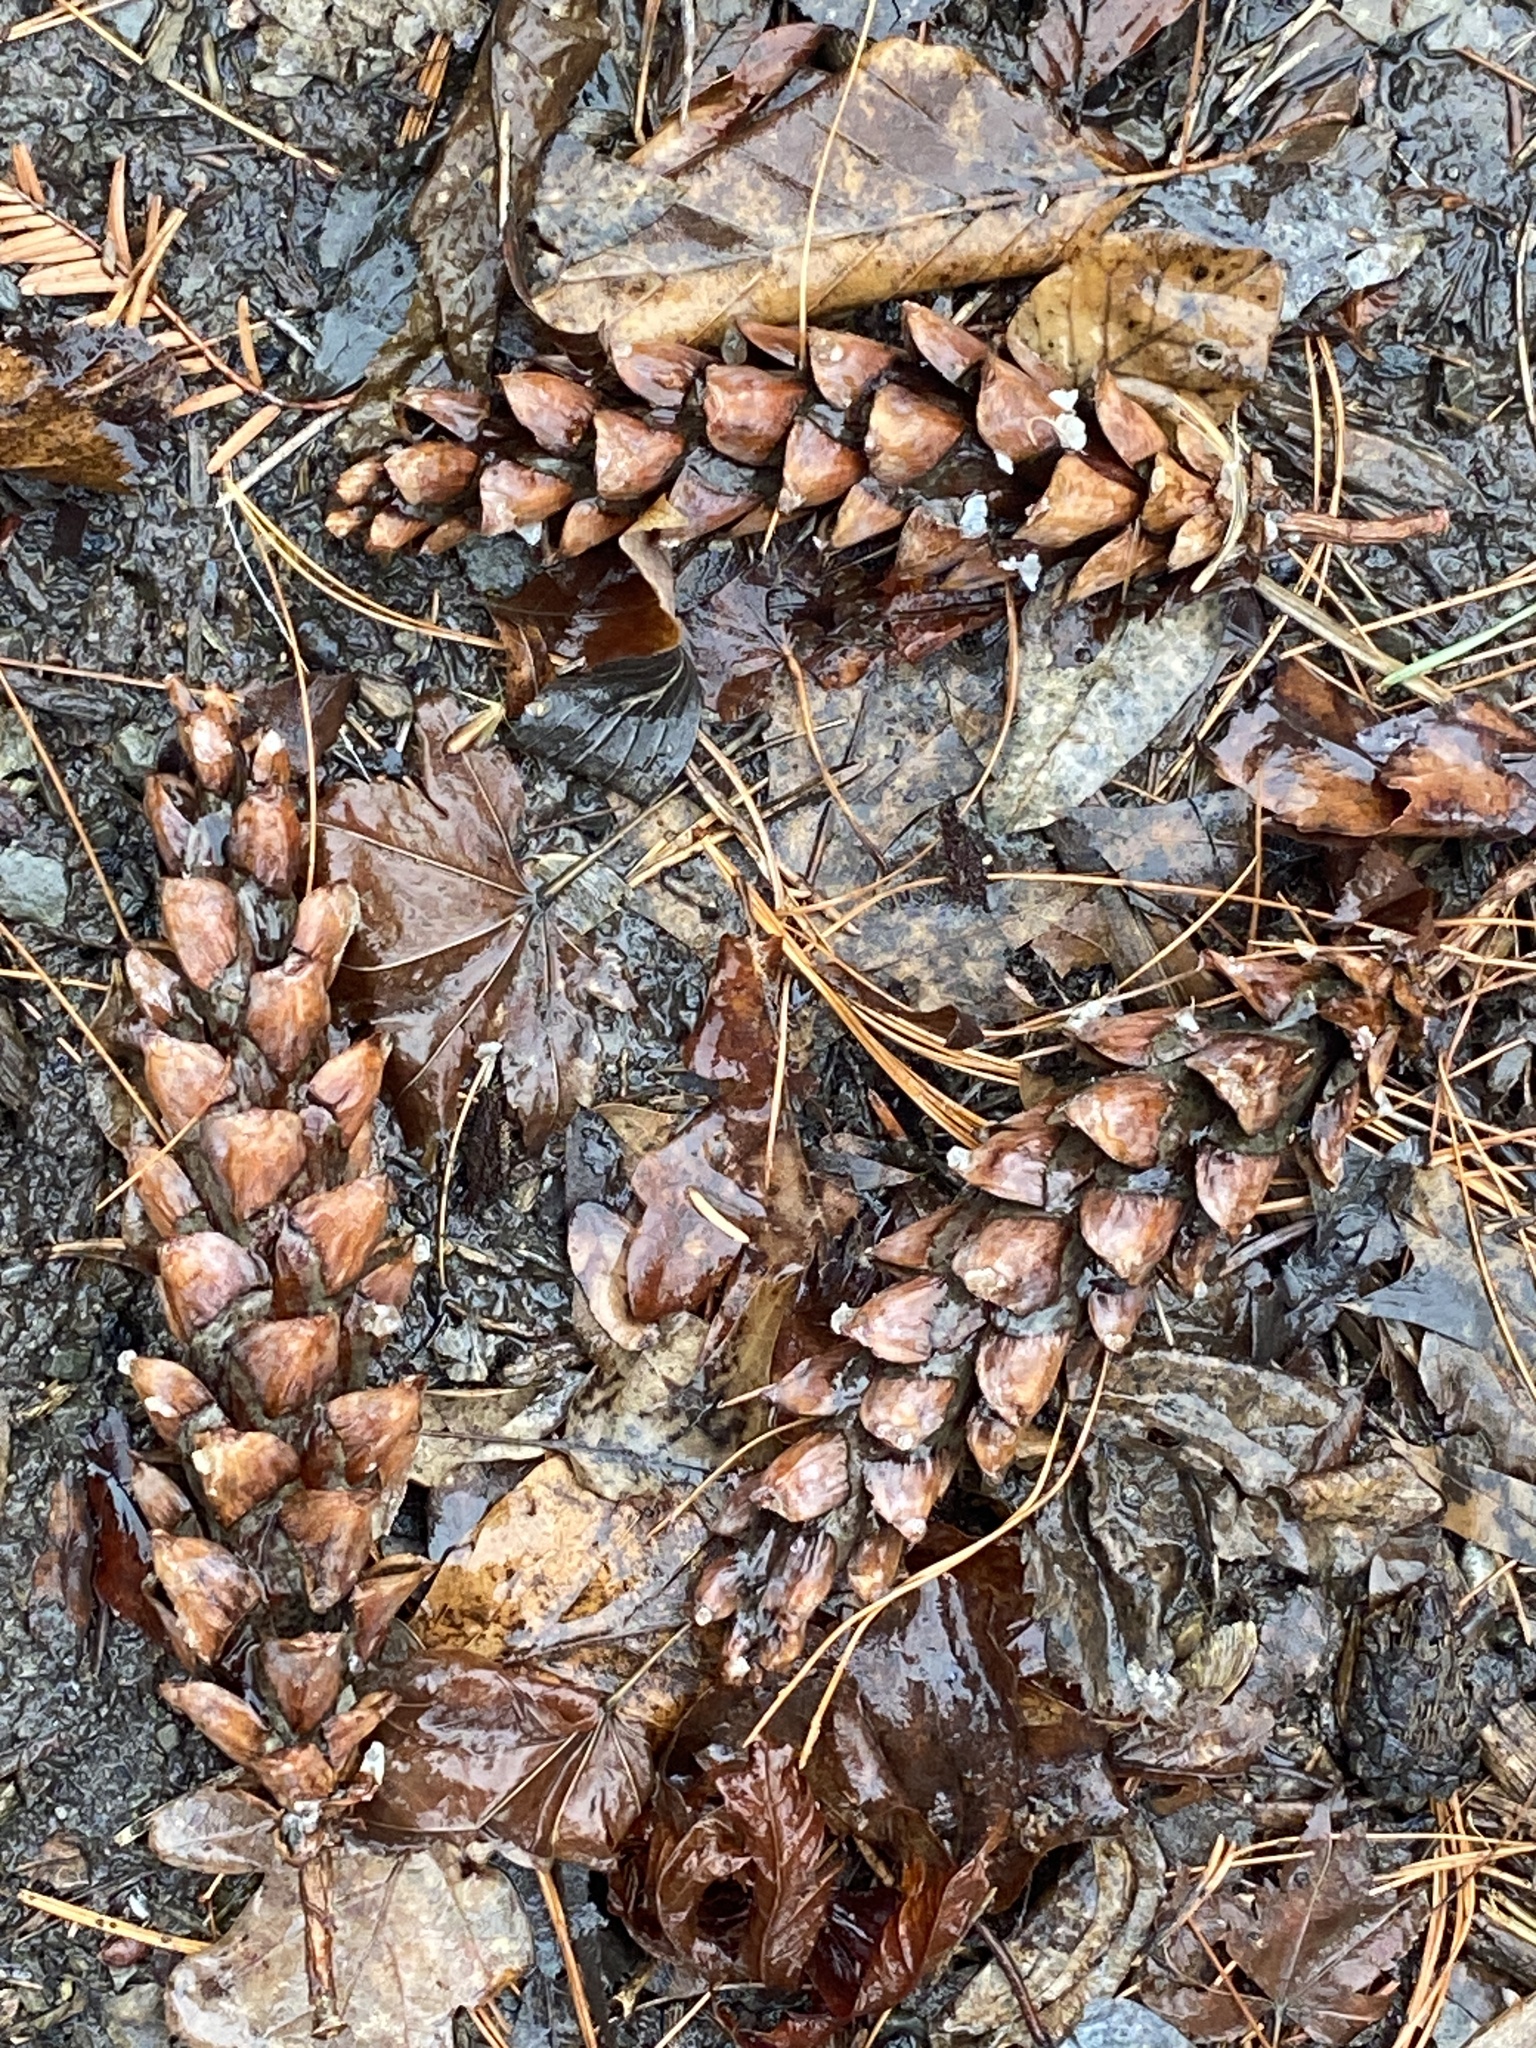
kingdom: Plantae
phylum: Tracheophyta
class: Pinopsida
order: Pinales
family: Pinaceae
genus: Pinus
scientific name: Pinus strobus
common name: Weymouth pine
